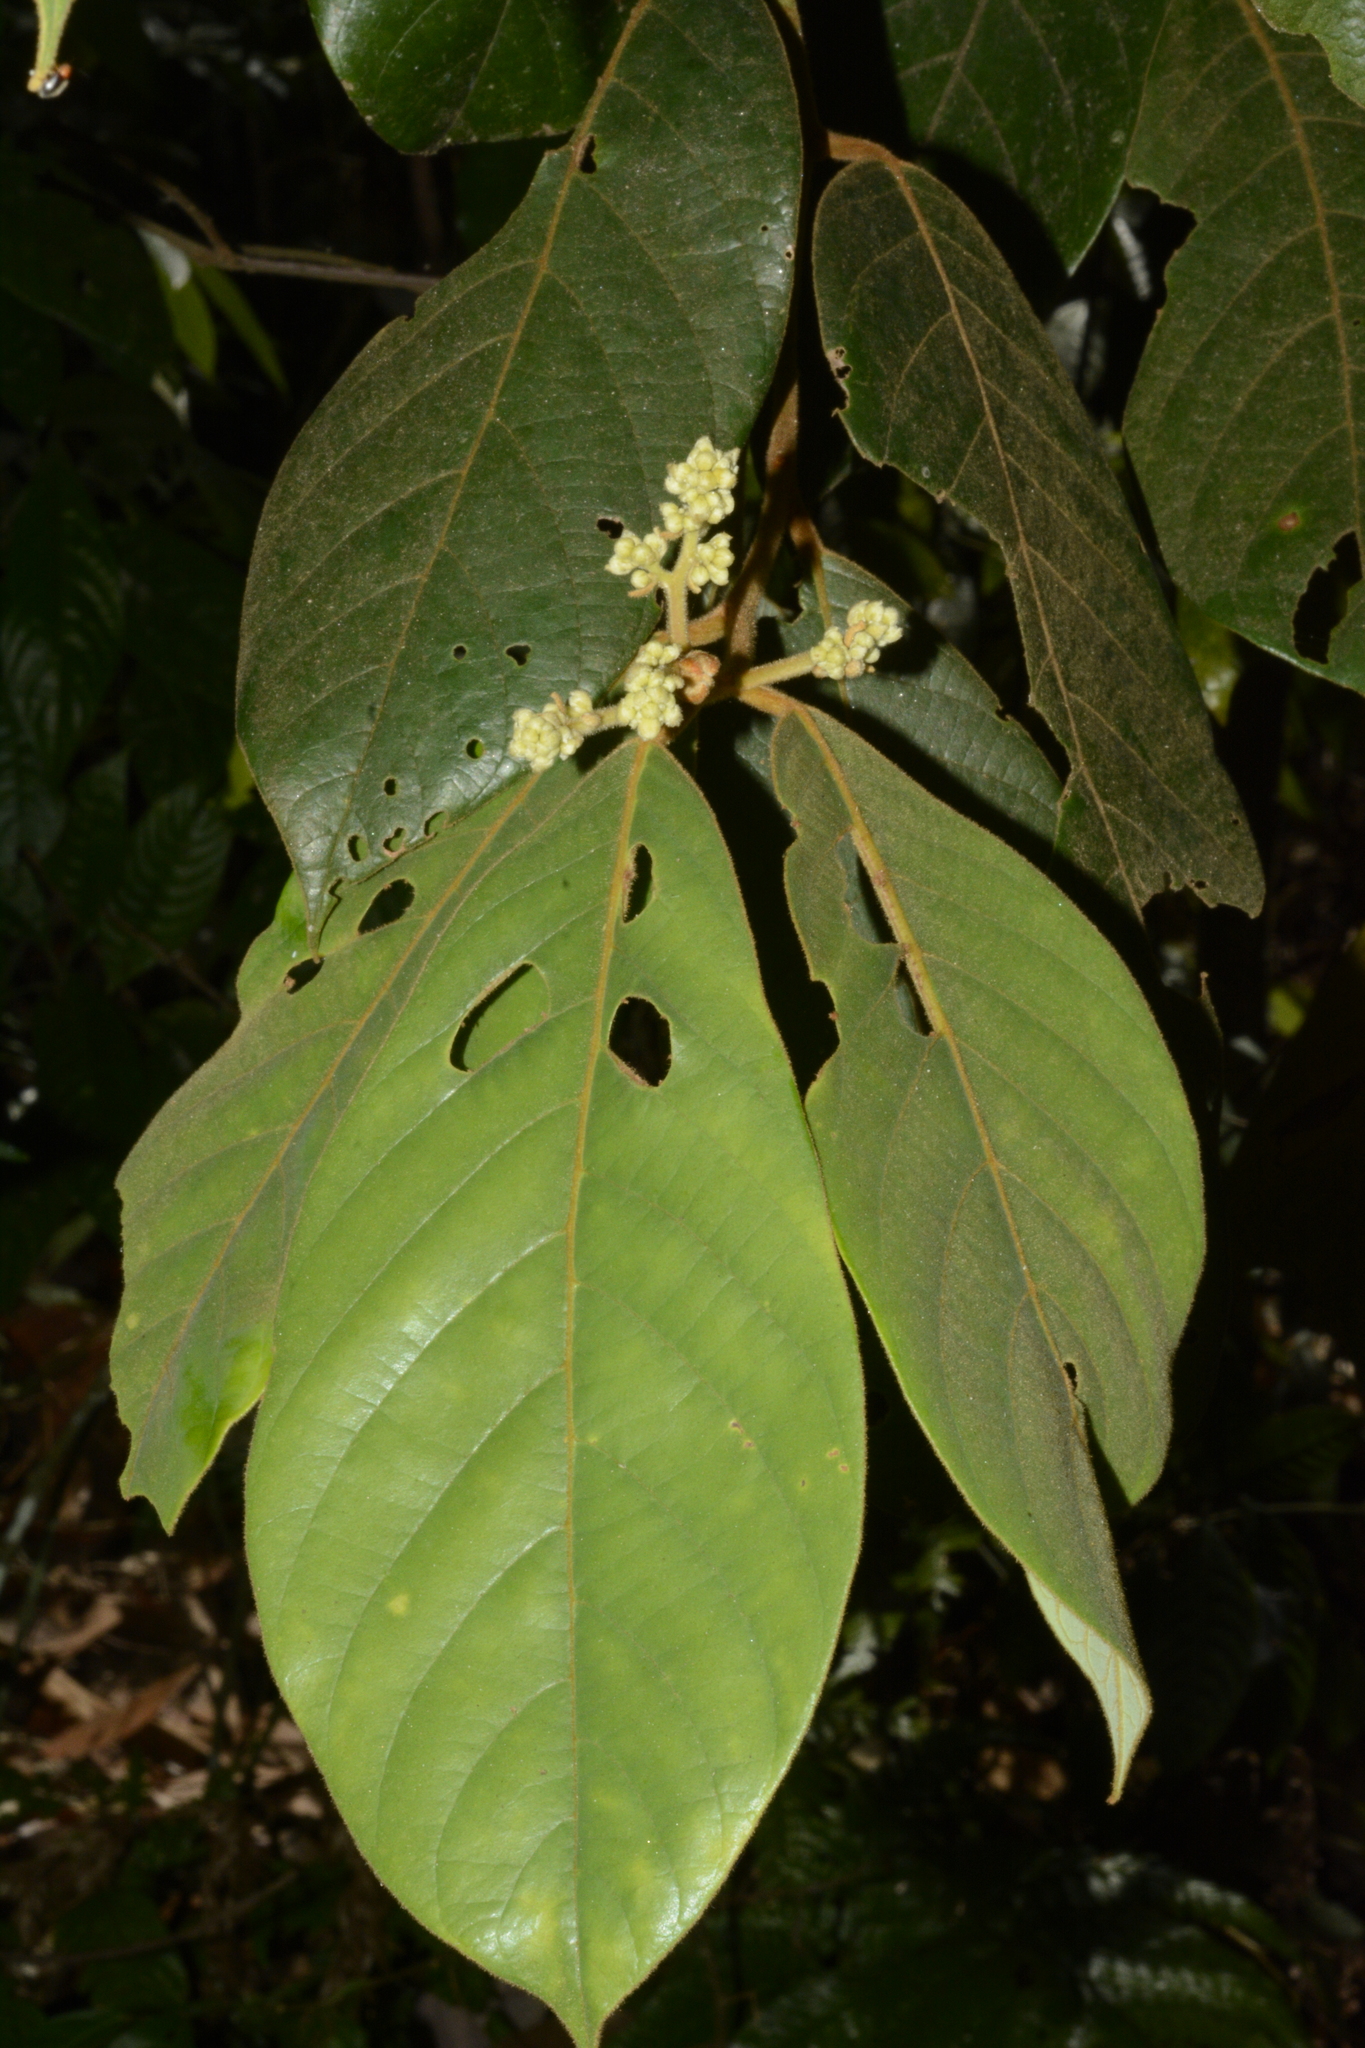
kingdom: Plantae
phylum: Tracheophyta
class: Magnoliopsida
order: Laurales
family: Lauraceae
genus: Cryptocarya
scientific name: Cryptocarya anamalayana
